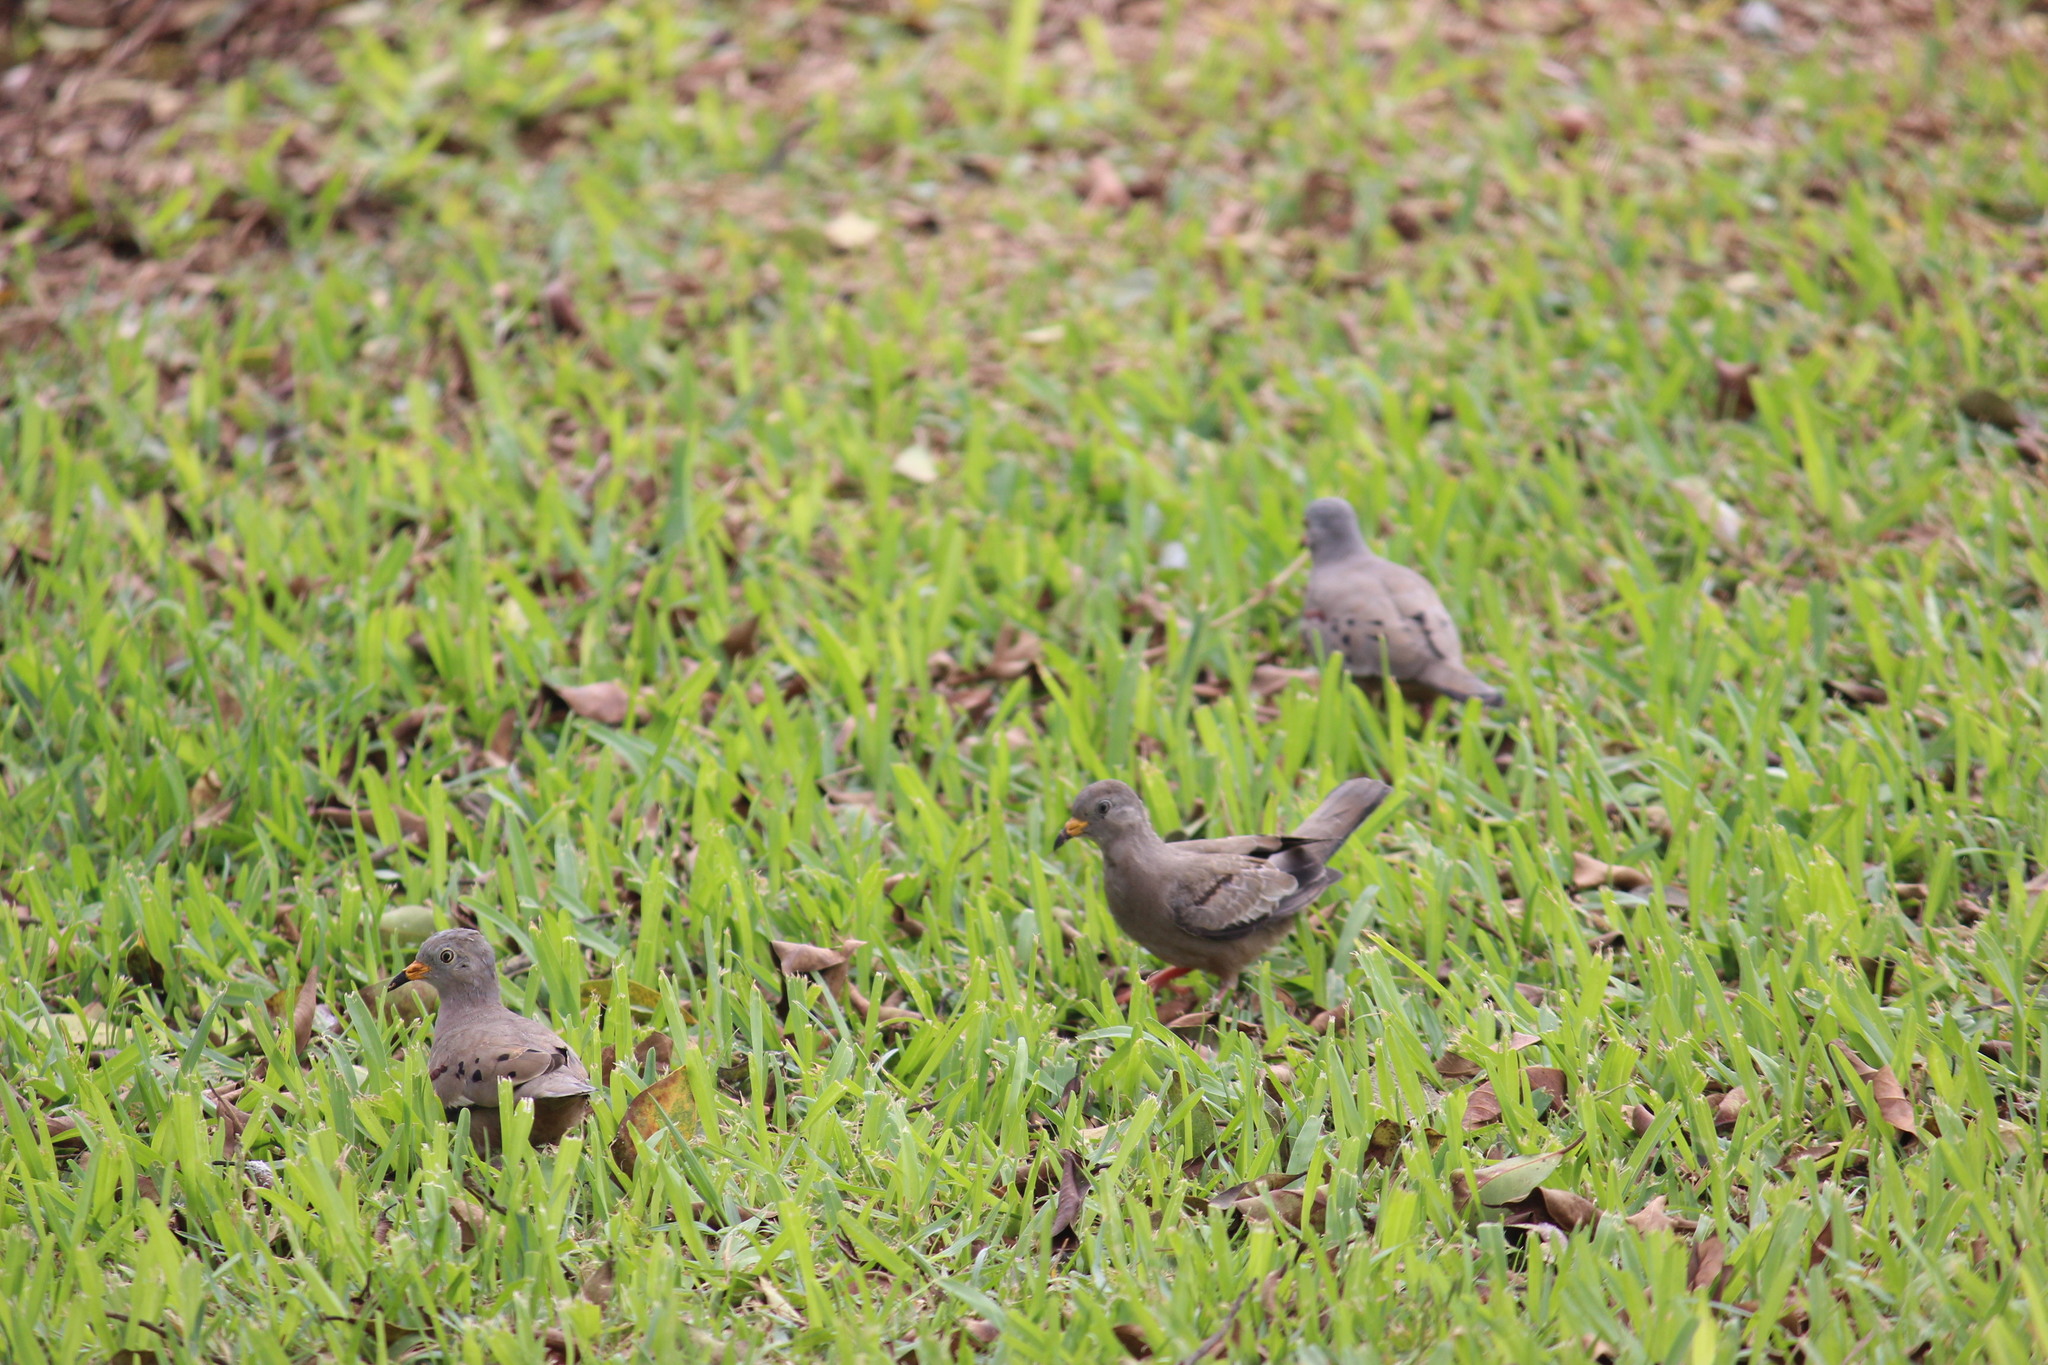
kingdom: Animalia
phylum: Chordata
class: Aves
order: Columbiformes
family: Columbidae
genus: Columbina
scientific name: Columbina cruziana
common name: Croaking ground dove
